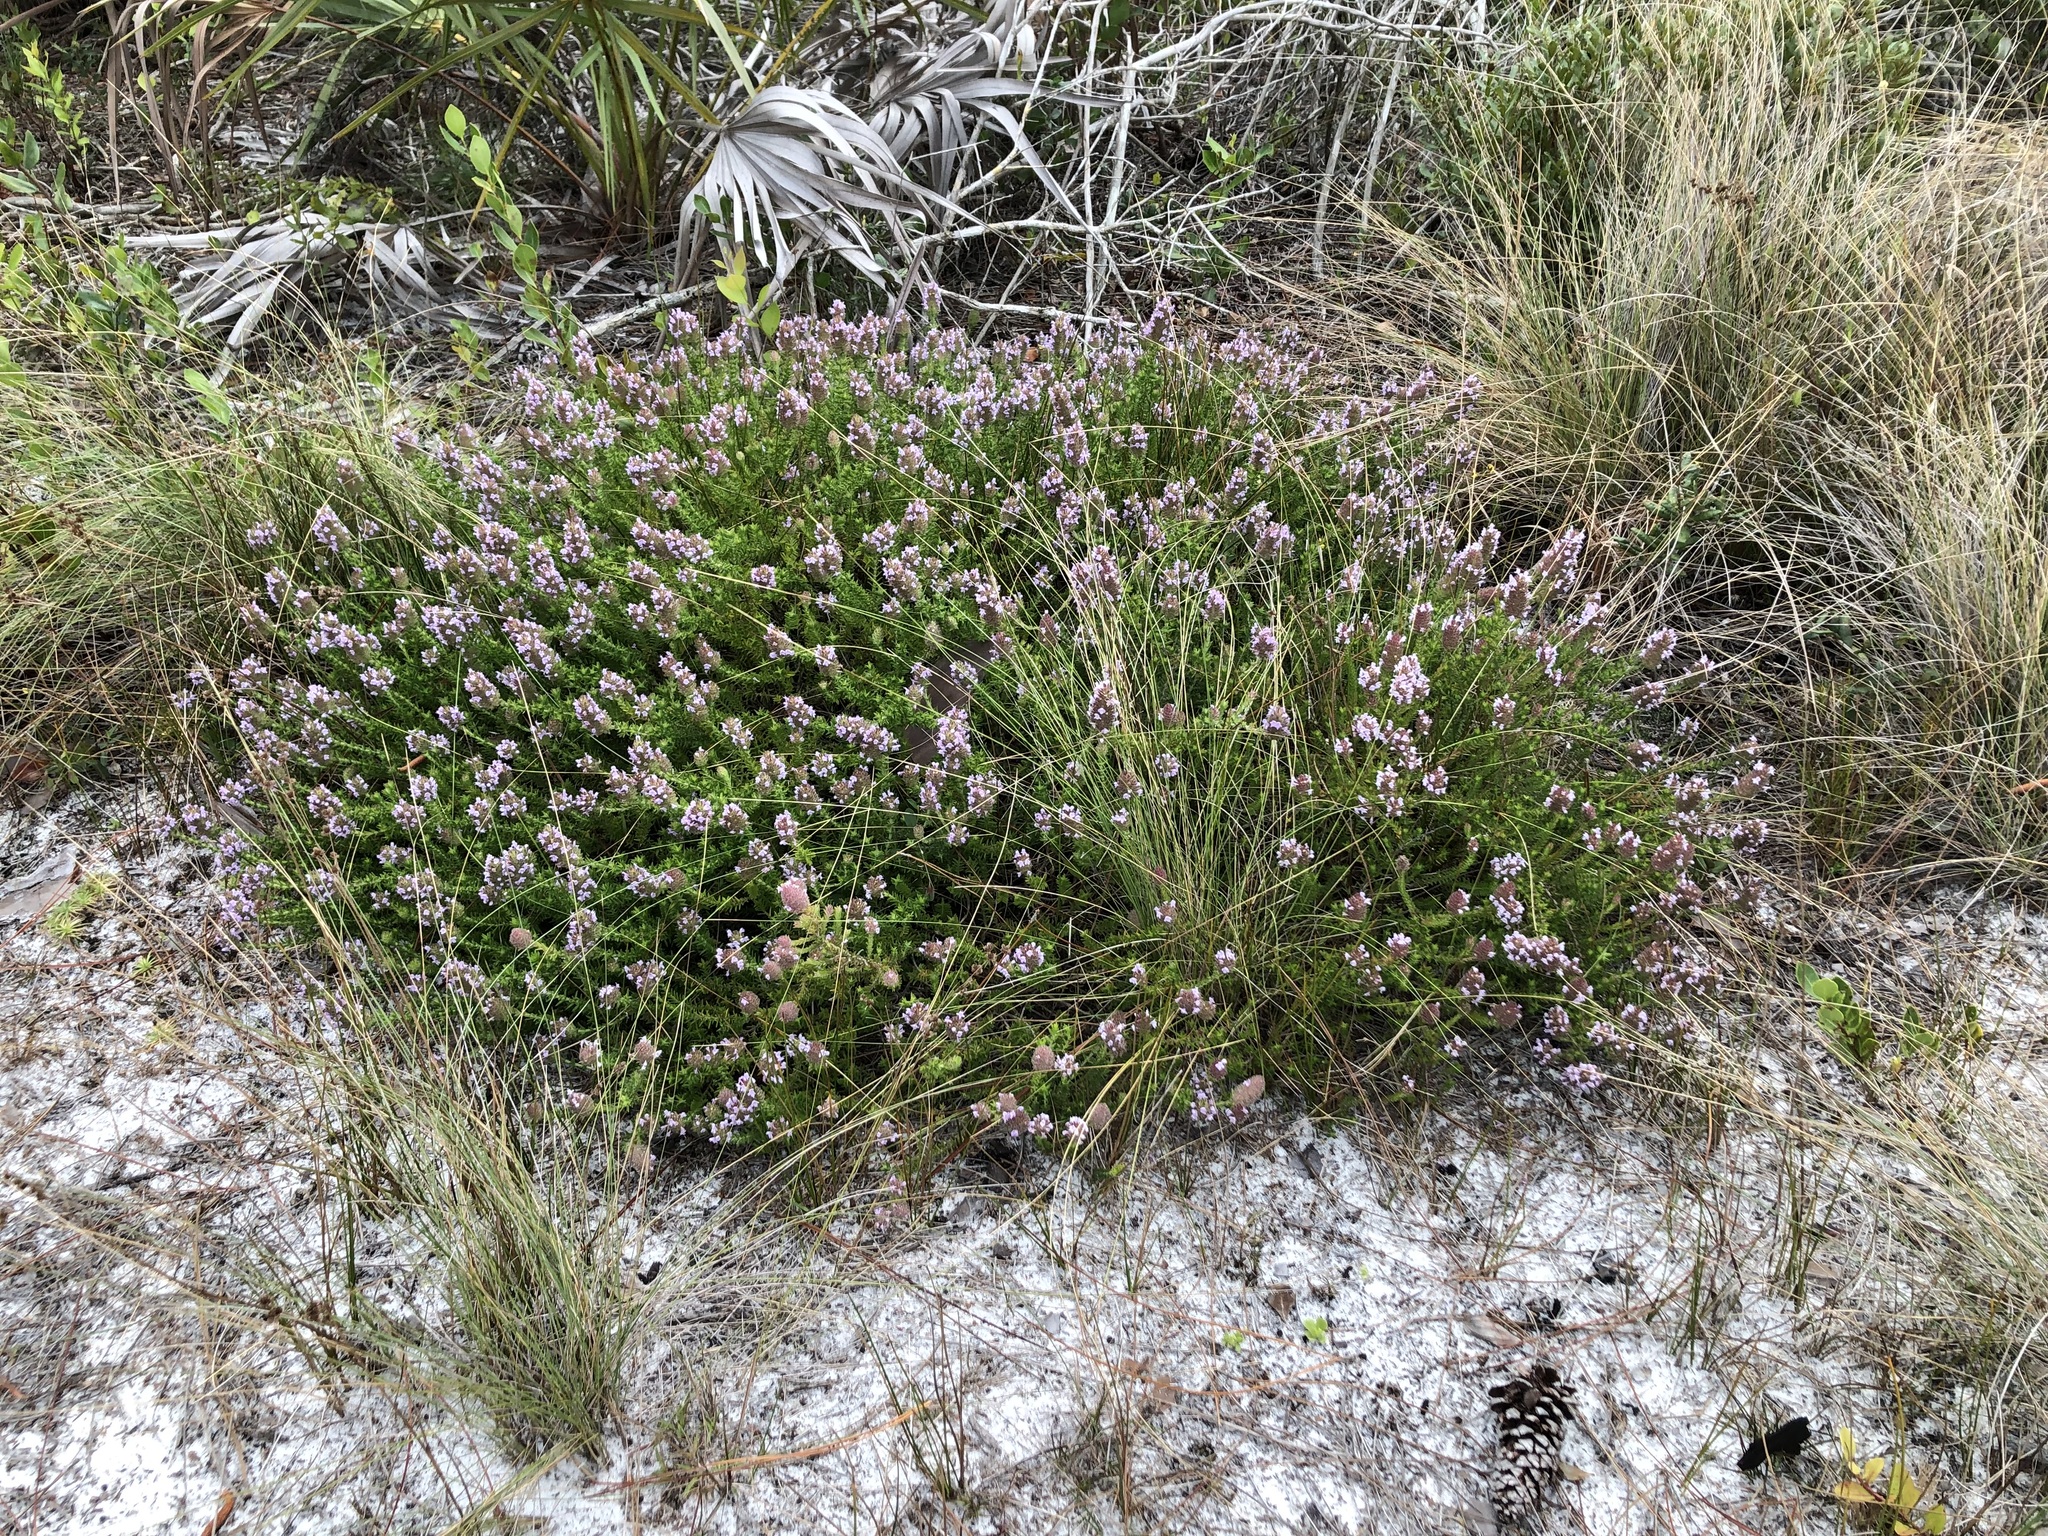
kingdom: Plantae
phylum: Tracheophyta
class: Magnoliopsida
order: Lamiales
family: Lamiaceae
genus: Piloblephis
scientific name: Piloblephis rigida
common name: Wild pennyroyal
